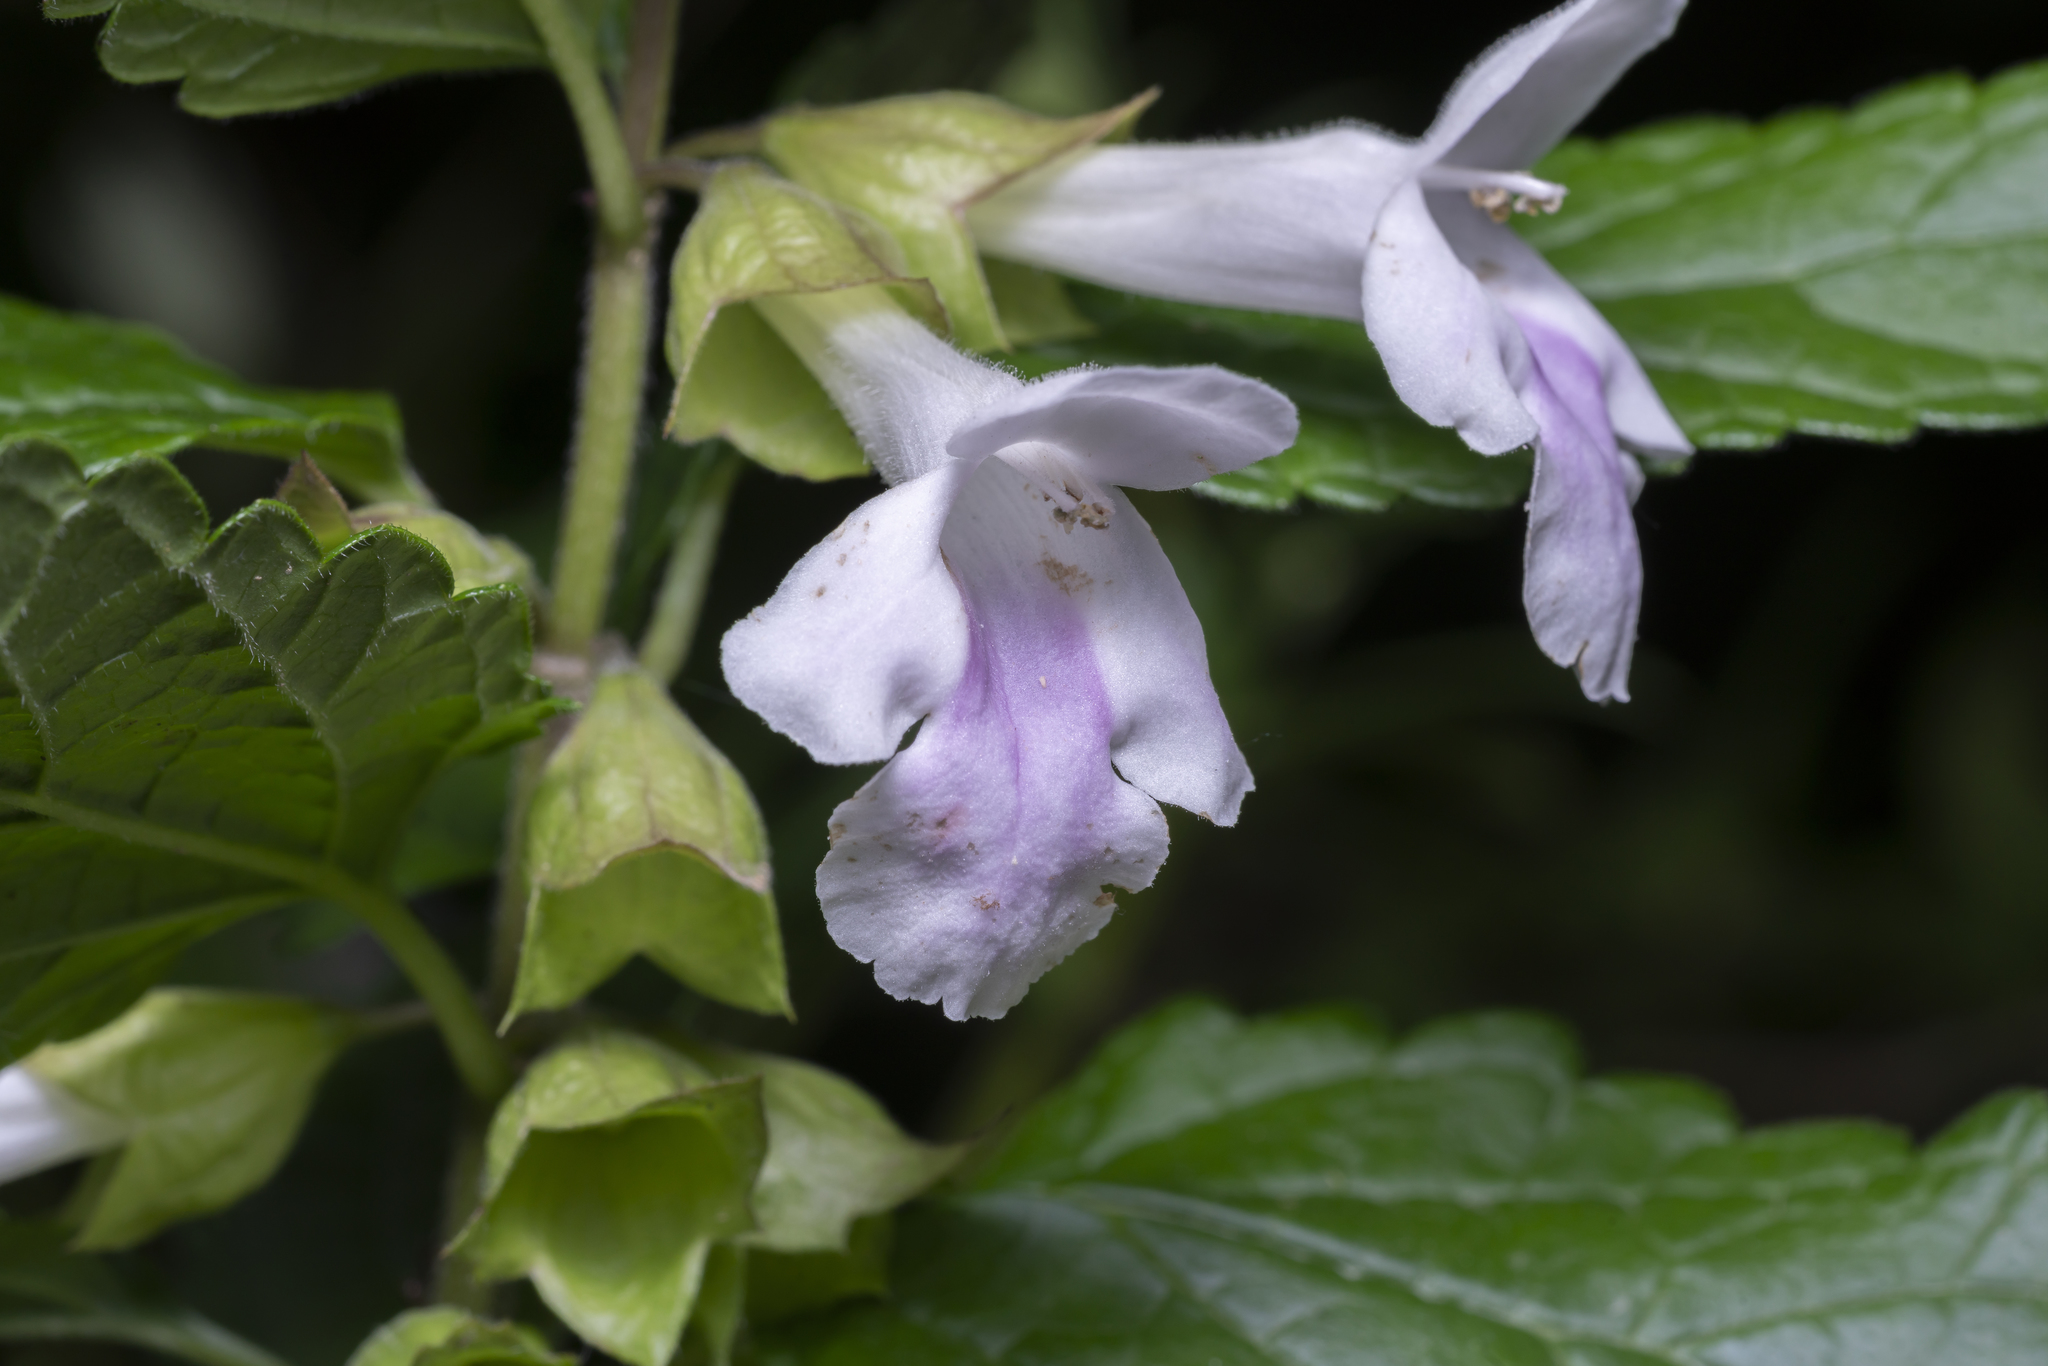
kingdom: Plantae
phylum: Tracheophyta
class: Magnoliopsida
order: Lamiales
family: Lamiaceae
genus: Melittis
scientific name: Melittis melissophyllum
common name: Bastard balm
